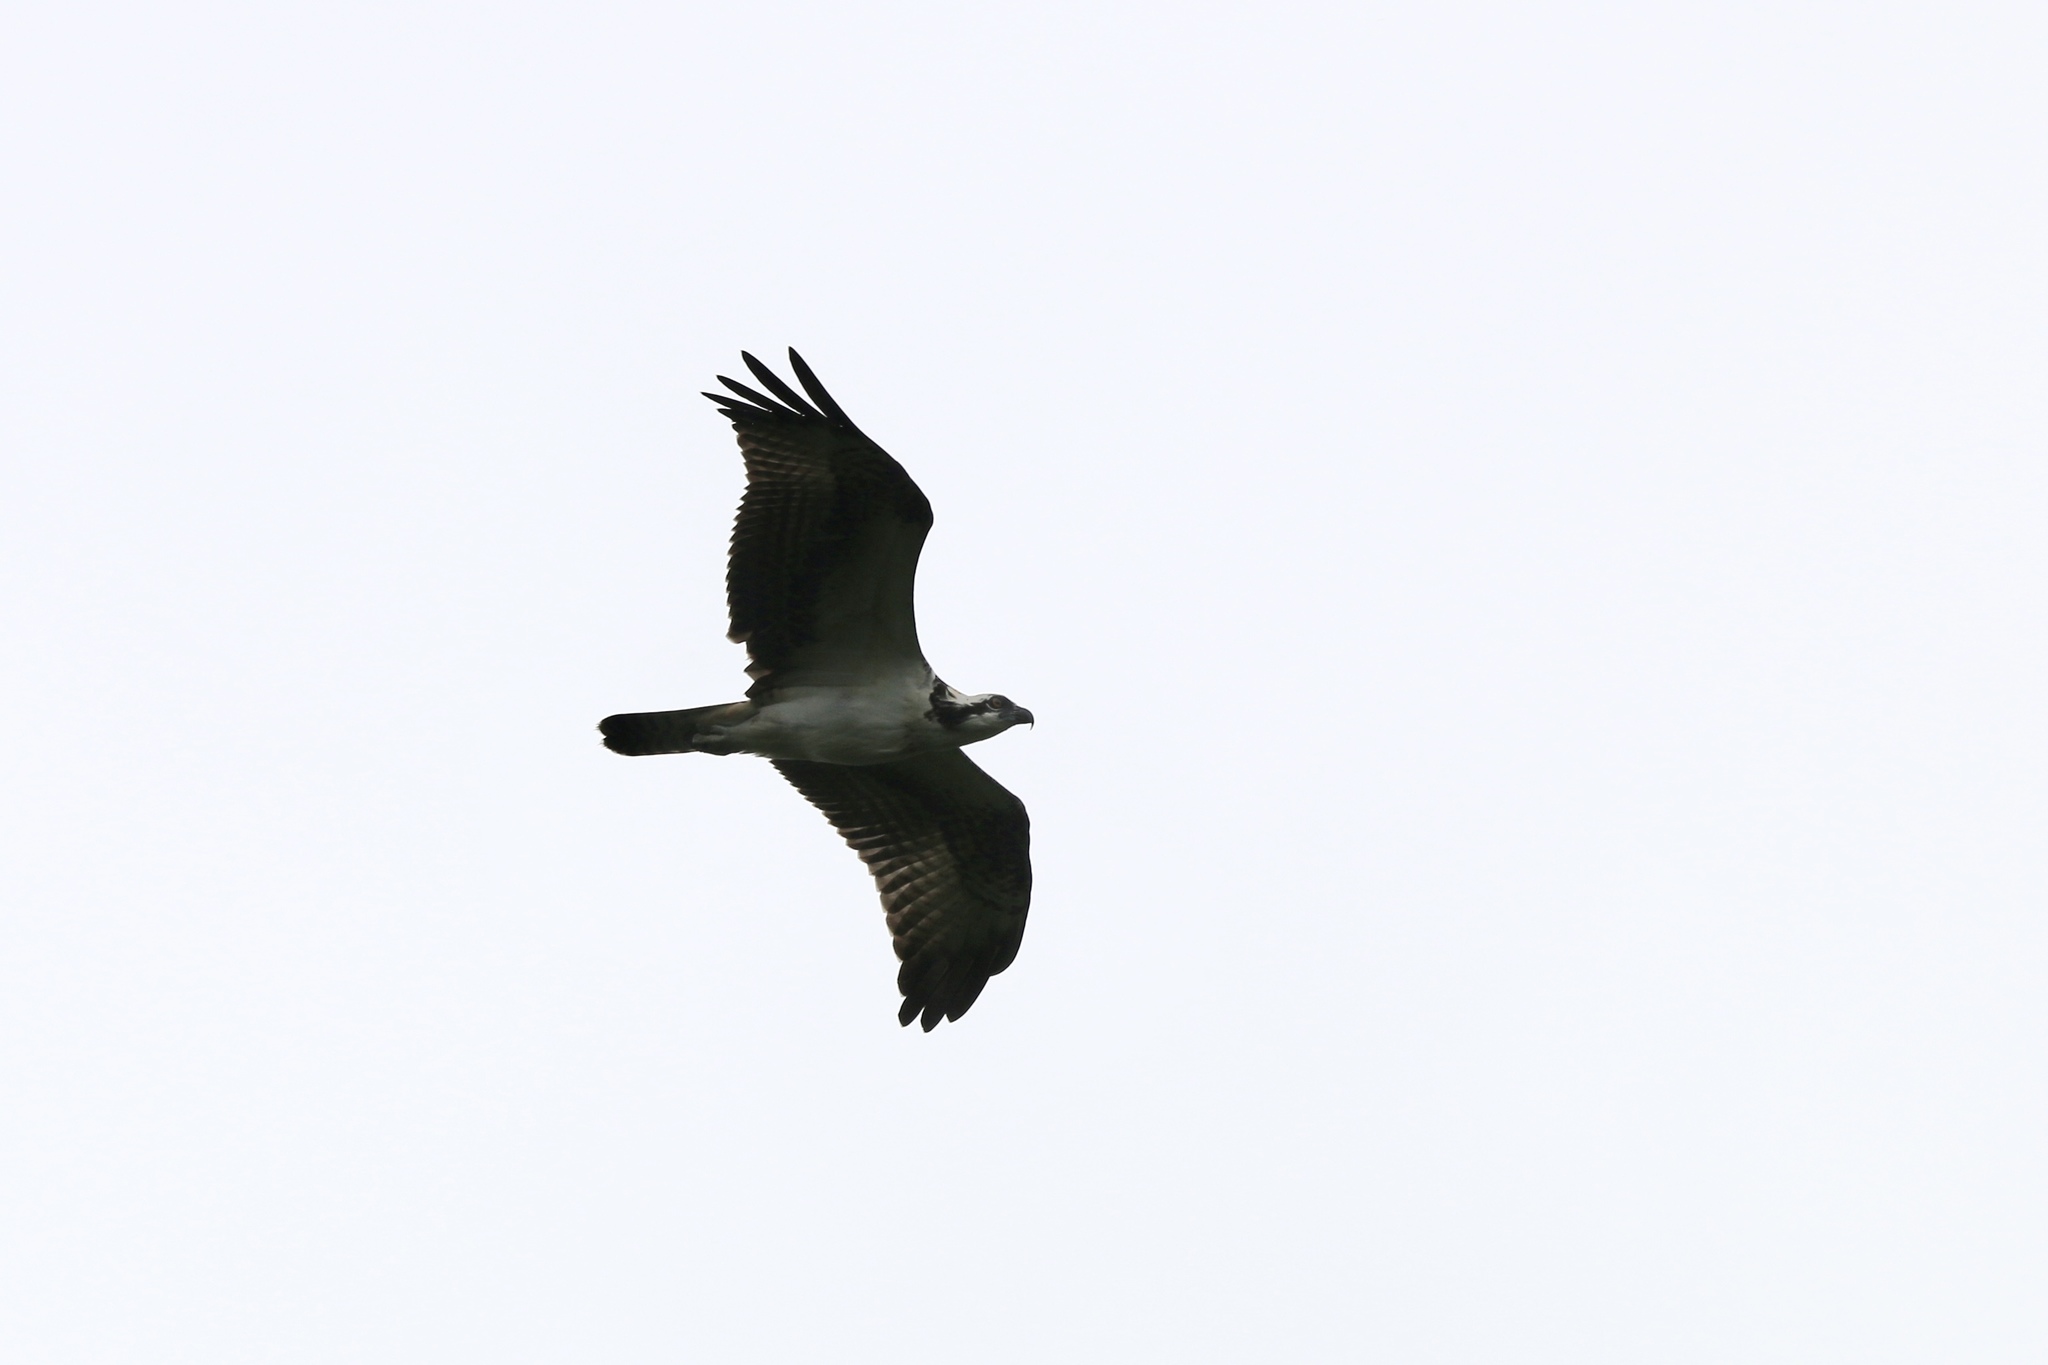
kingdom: Animalia
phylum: Chordata
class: Aves
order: Accipitriformes
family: Pandionidae
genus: Pandion
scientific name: Pandion haliaetus
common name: Osprey
